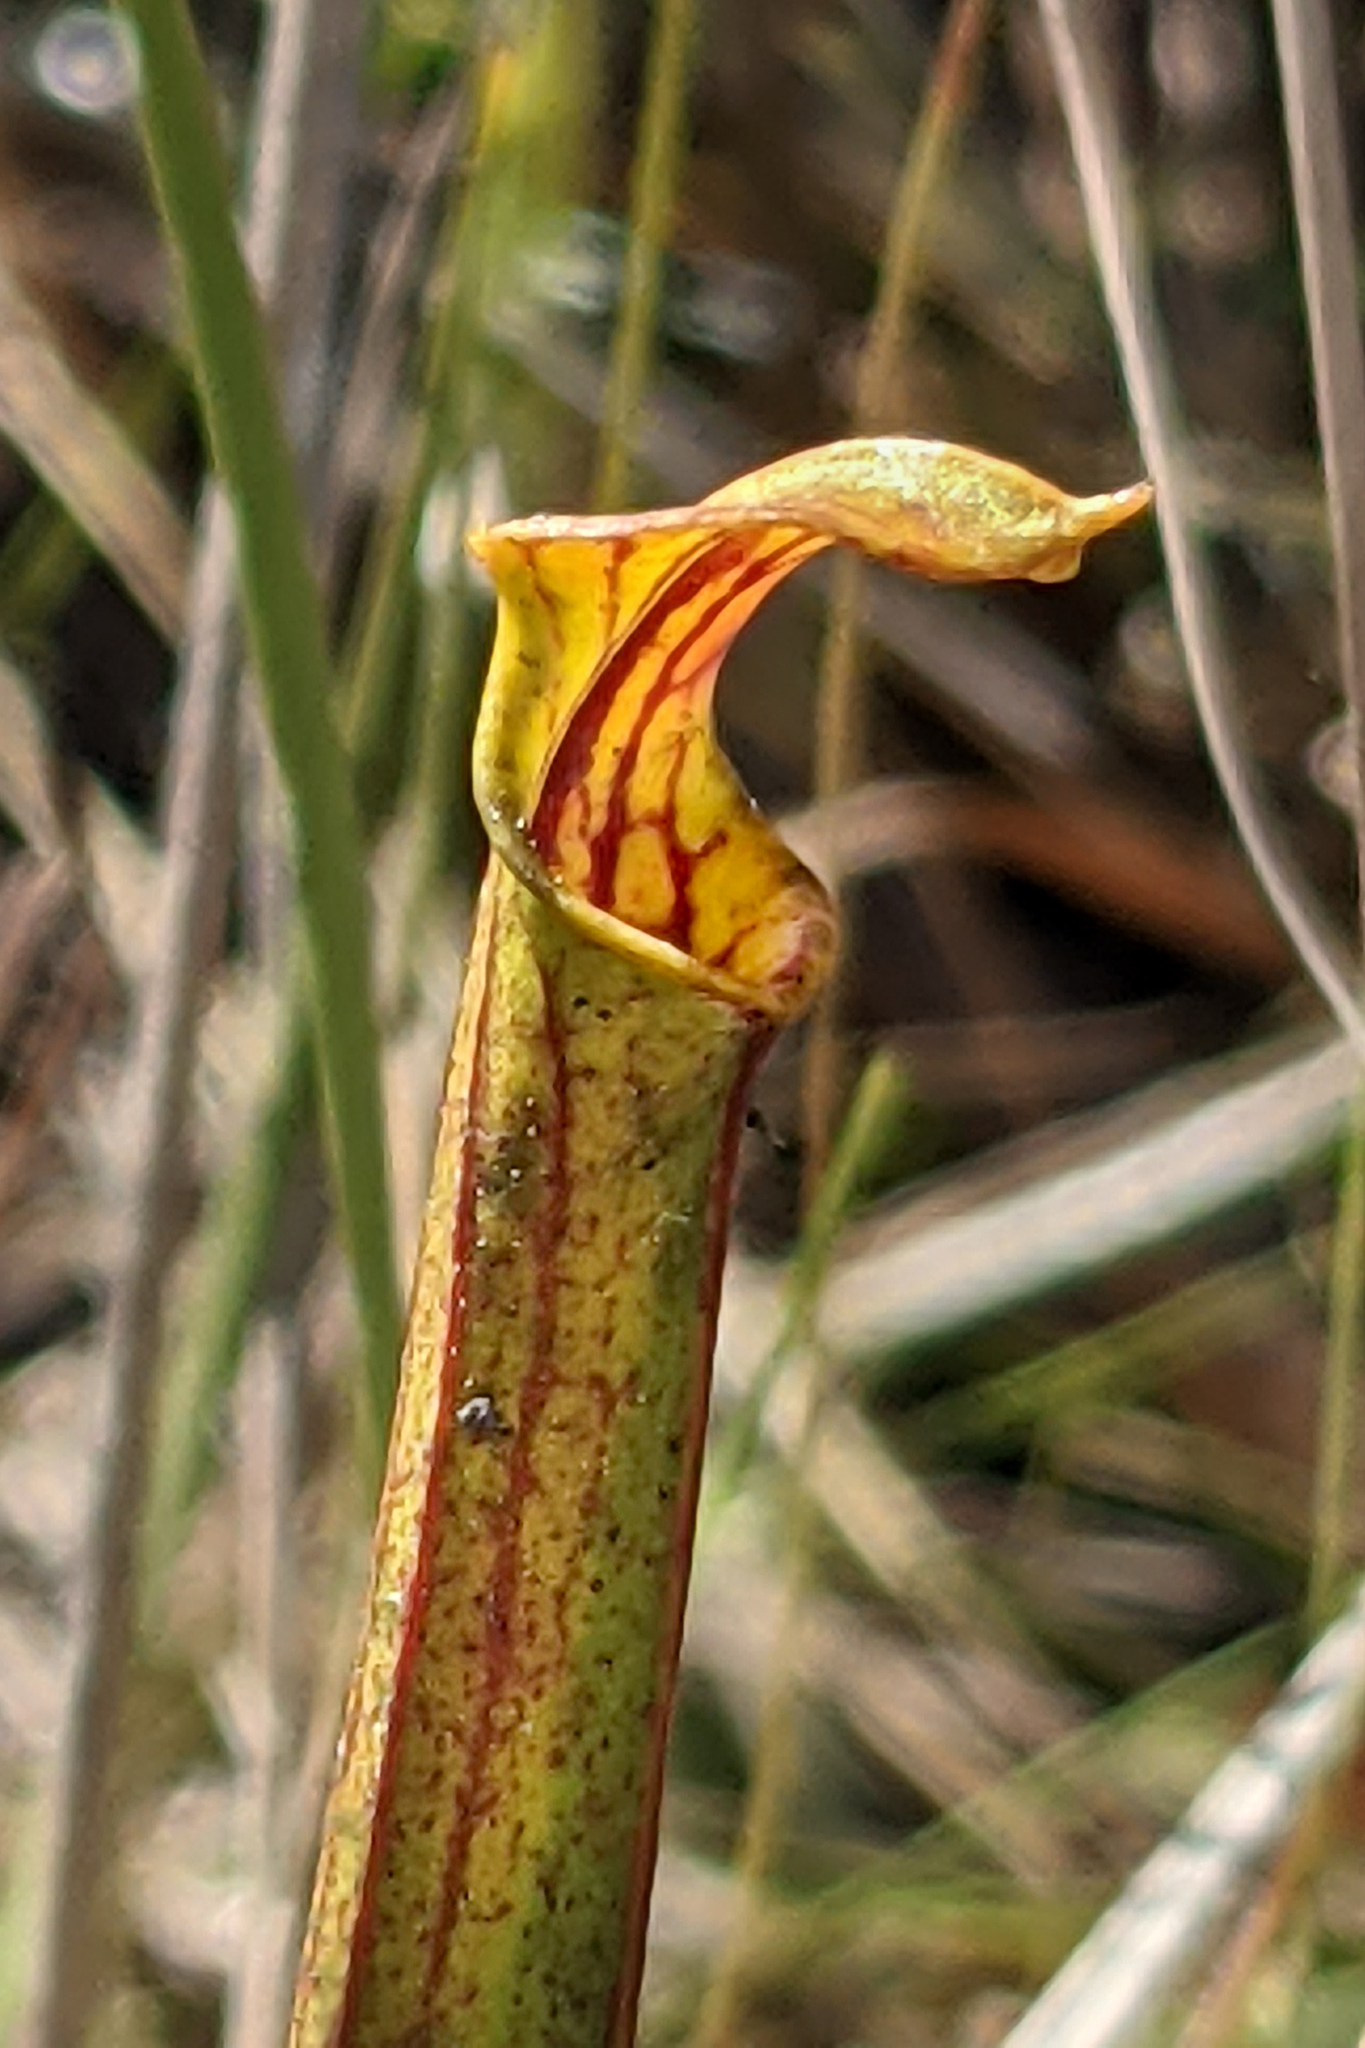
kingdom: Plantae
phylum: Tracheophyta
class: Magnoliopsida
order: Ericales
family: Sarraceniaceae
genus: Sarracenia
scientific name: Sarracenia flava
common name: Trumpets
